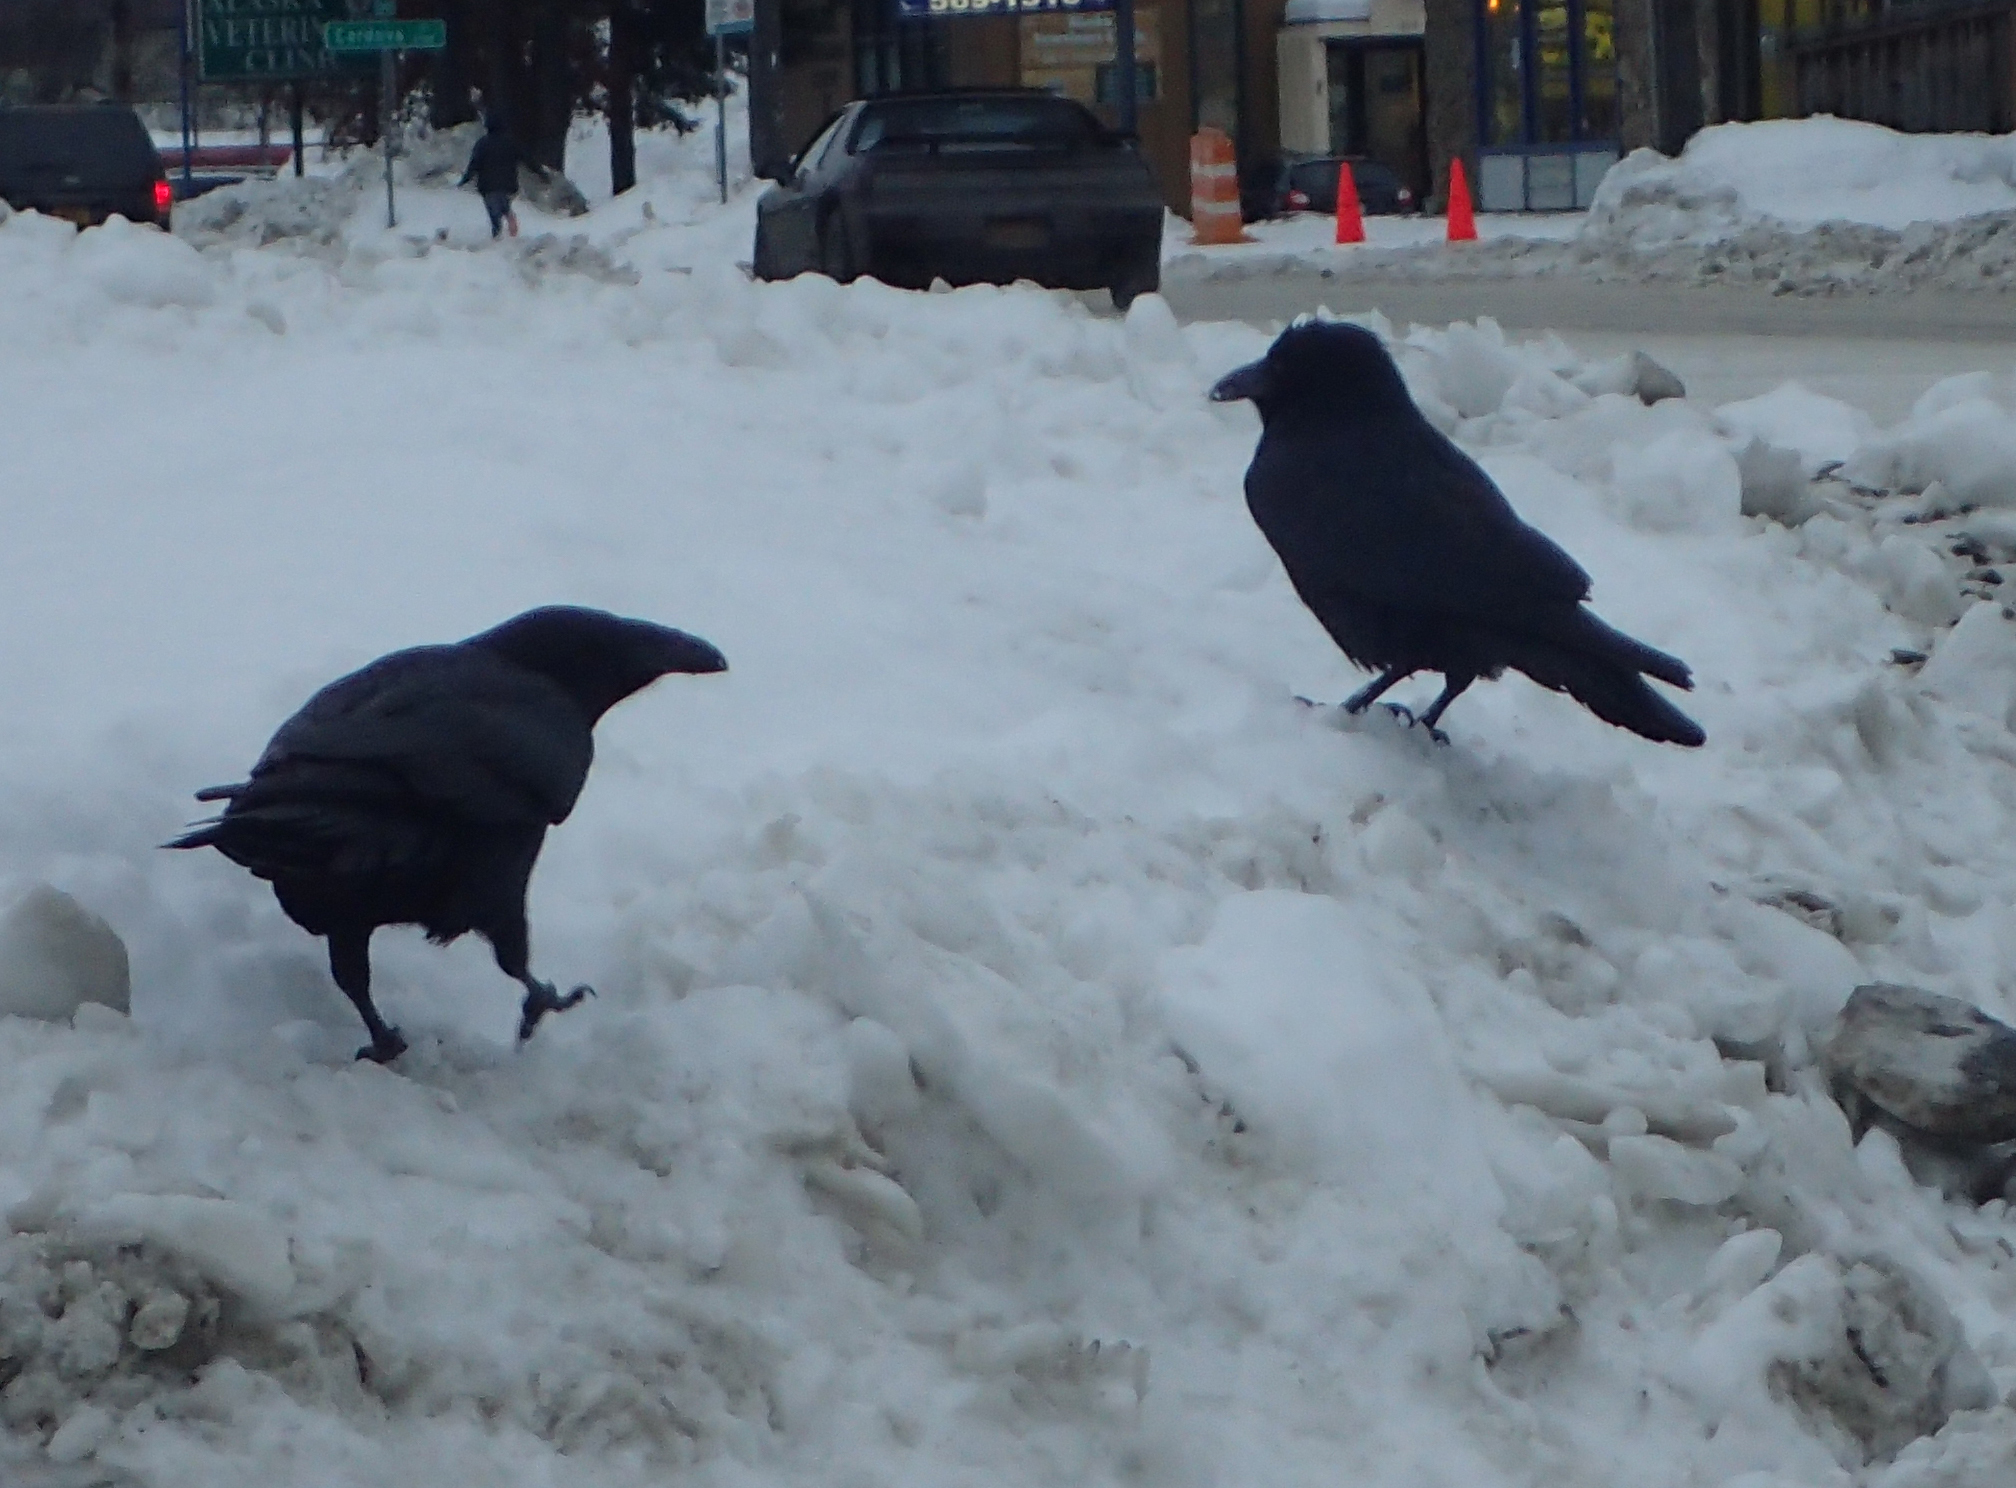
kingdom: Animalia
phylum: Chordata
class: Aves
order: Passeriformes
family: Corvidae
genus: Corvus
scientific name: Corvus corax
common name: Common raven
